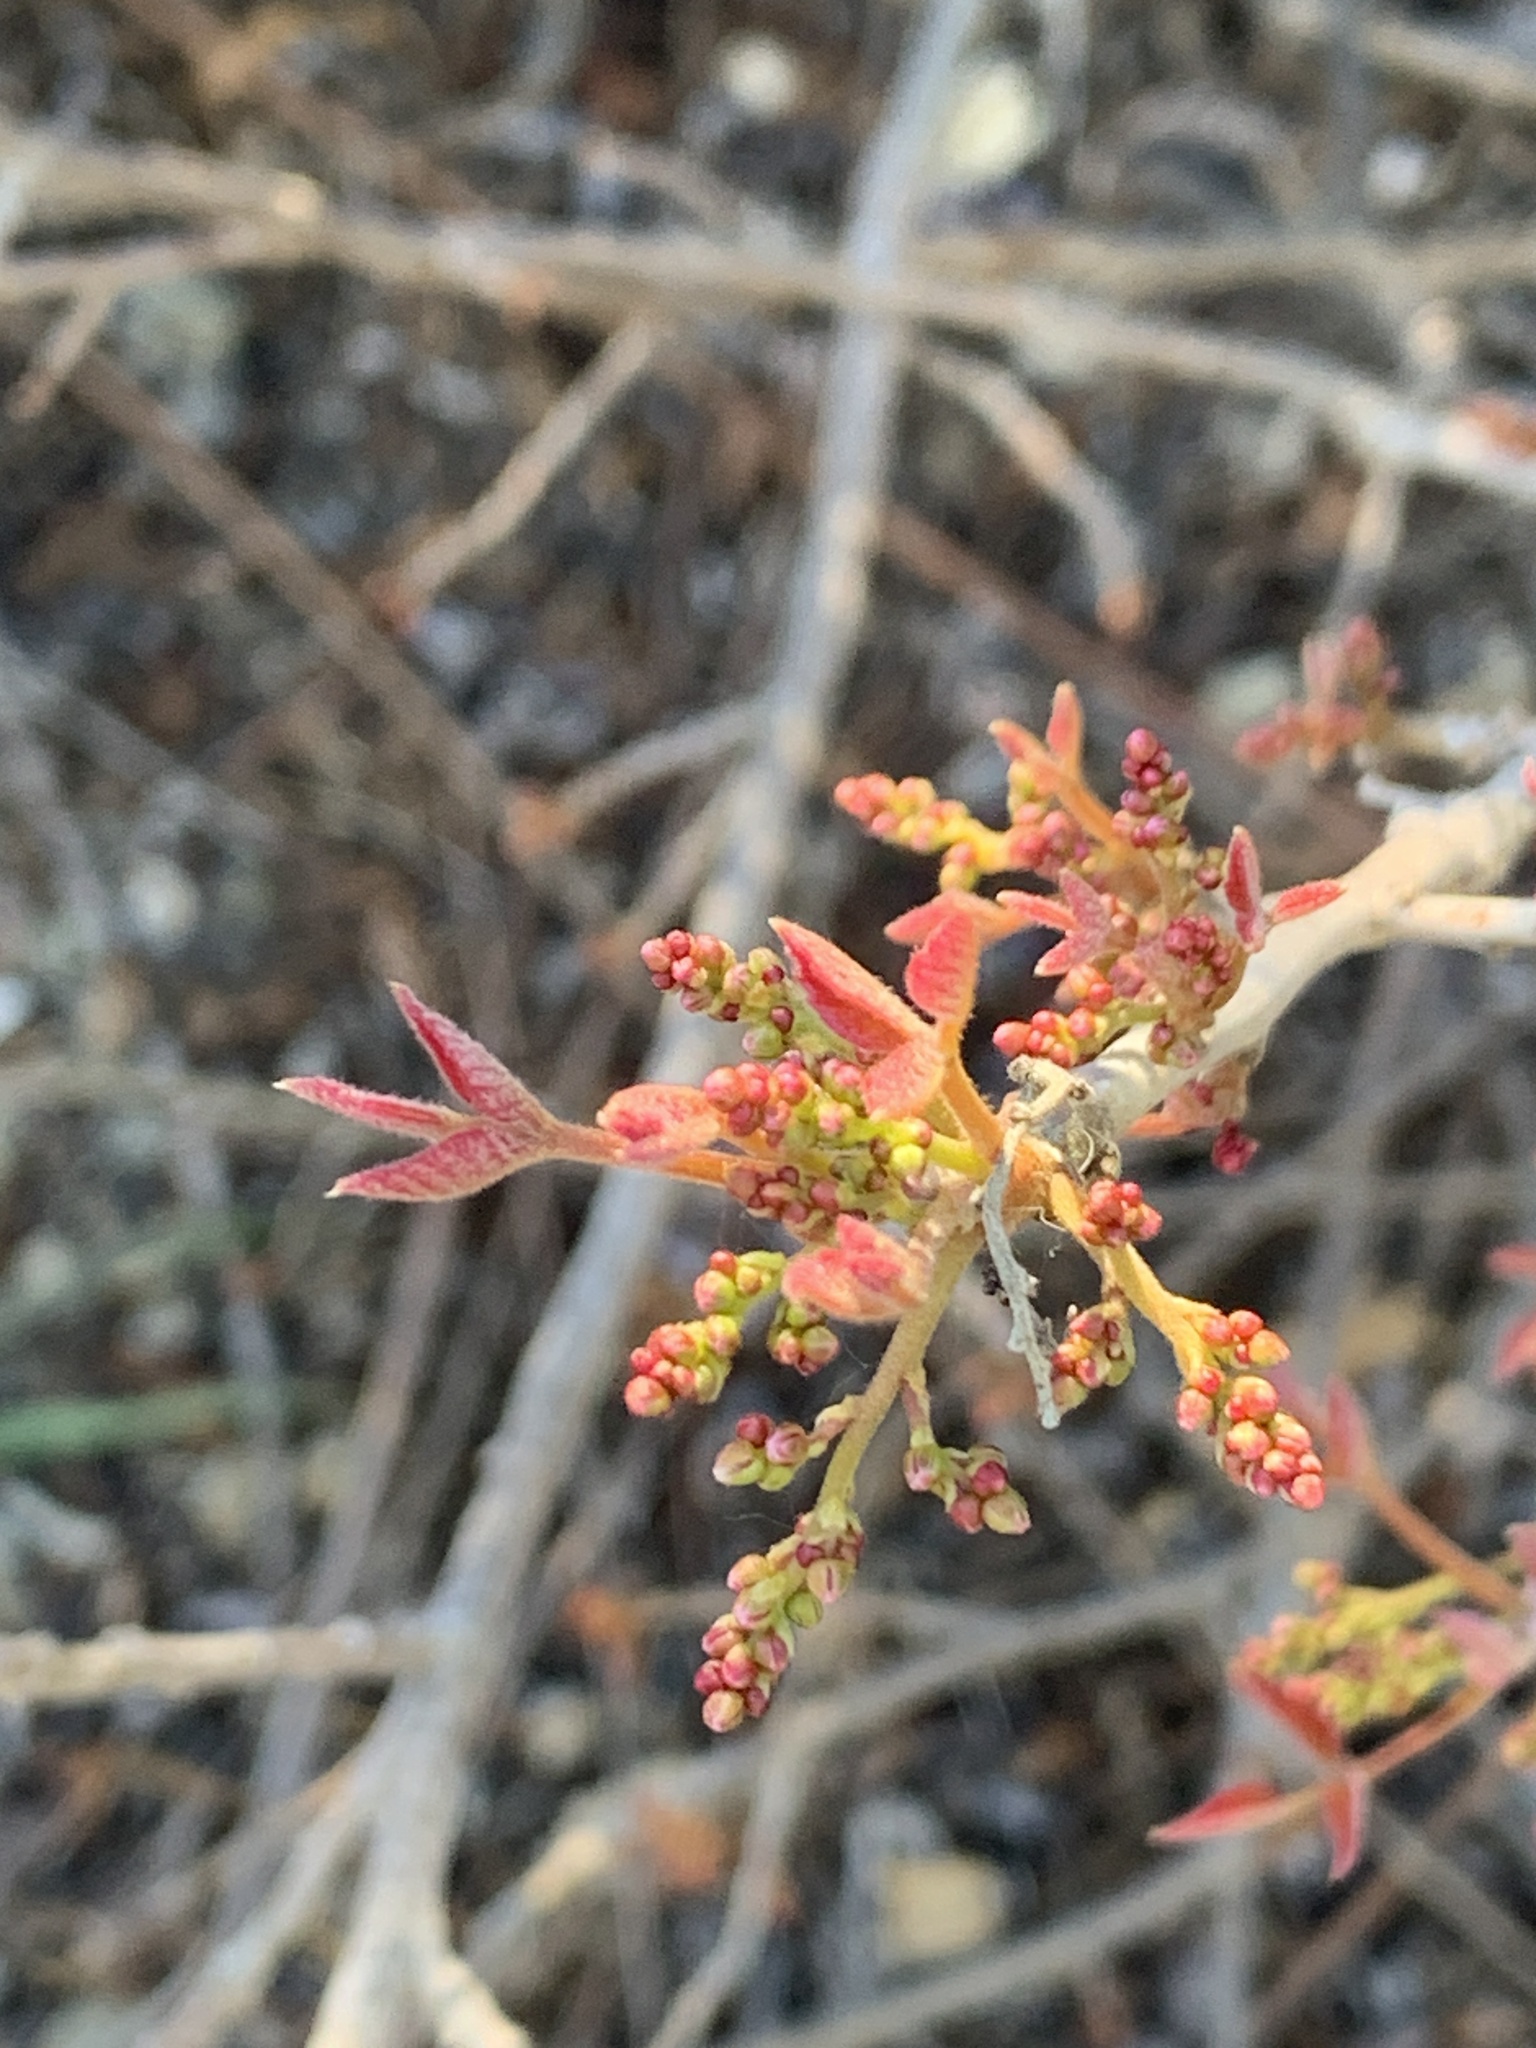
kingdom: Plantae
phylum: Tracheophyta
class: Magnoliopsida
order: Sapindales
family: Anacardiaceae
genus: Toxicodendron
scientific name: Toxicodendron diversilobum
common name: Pacific poison-oak
